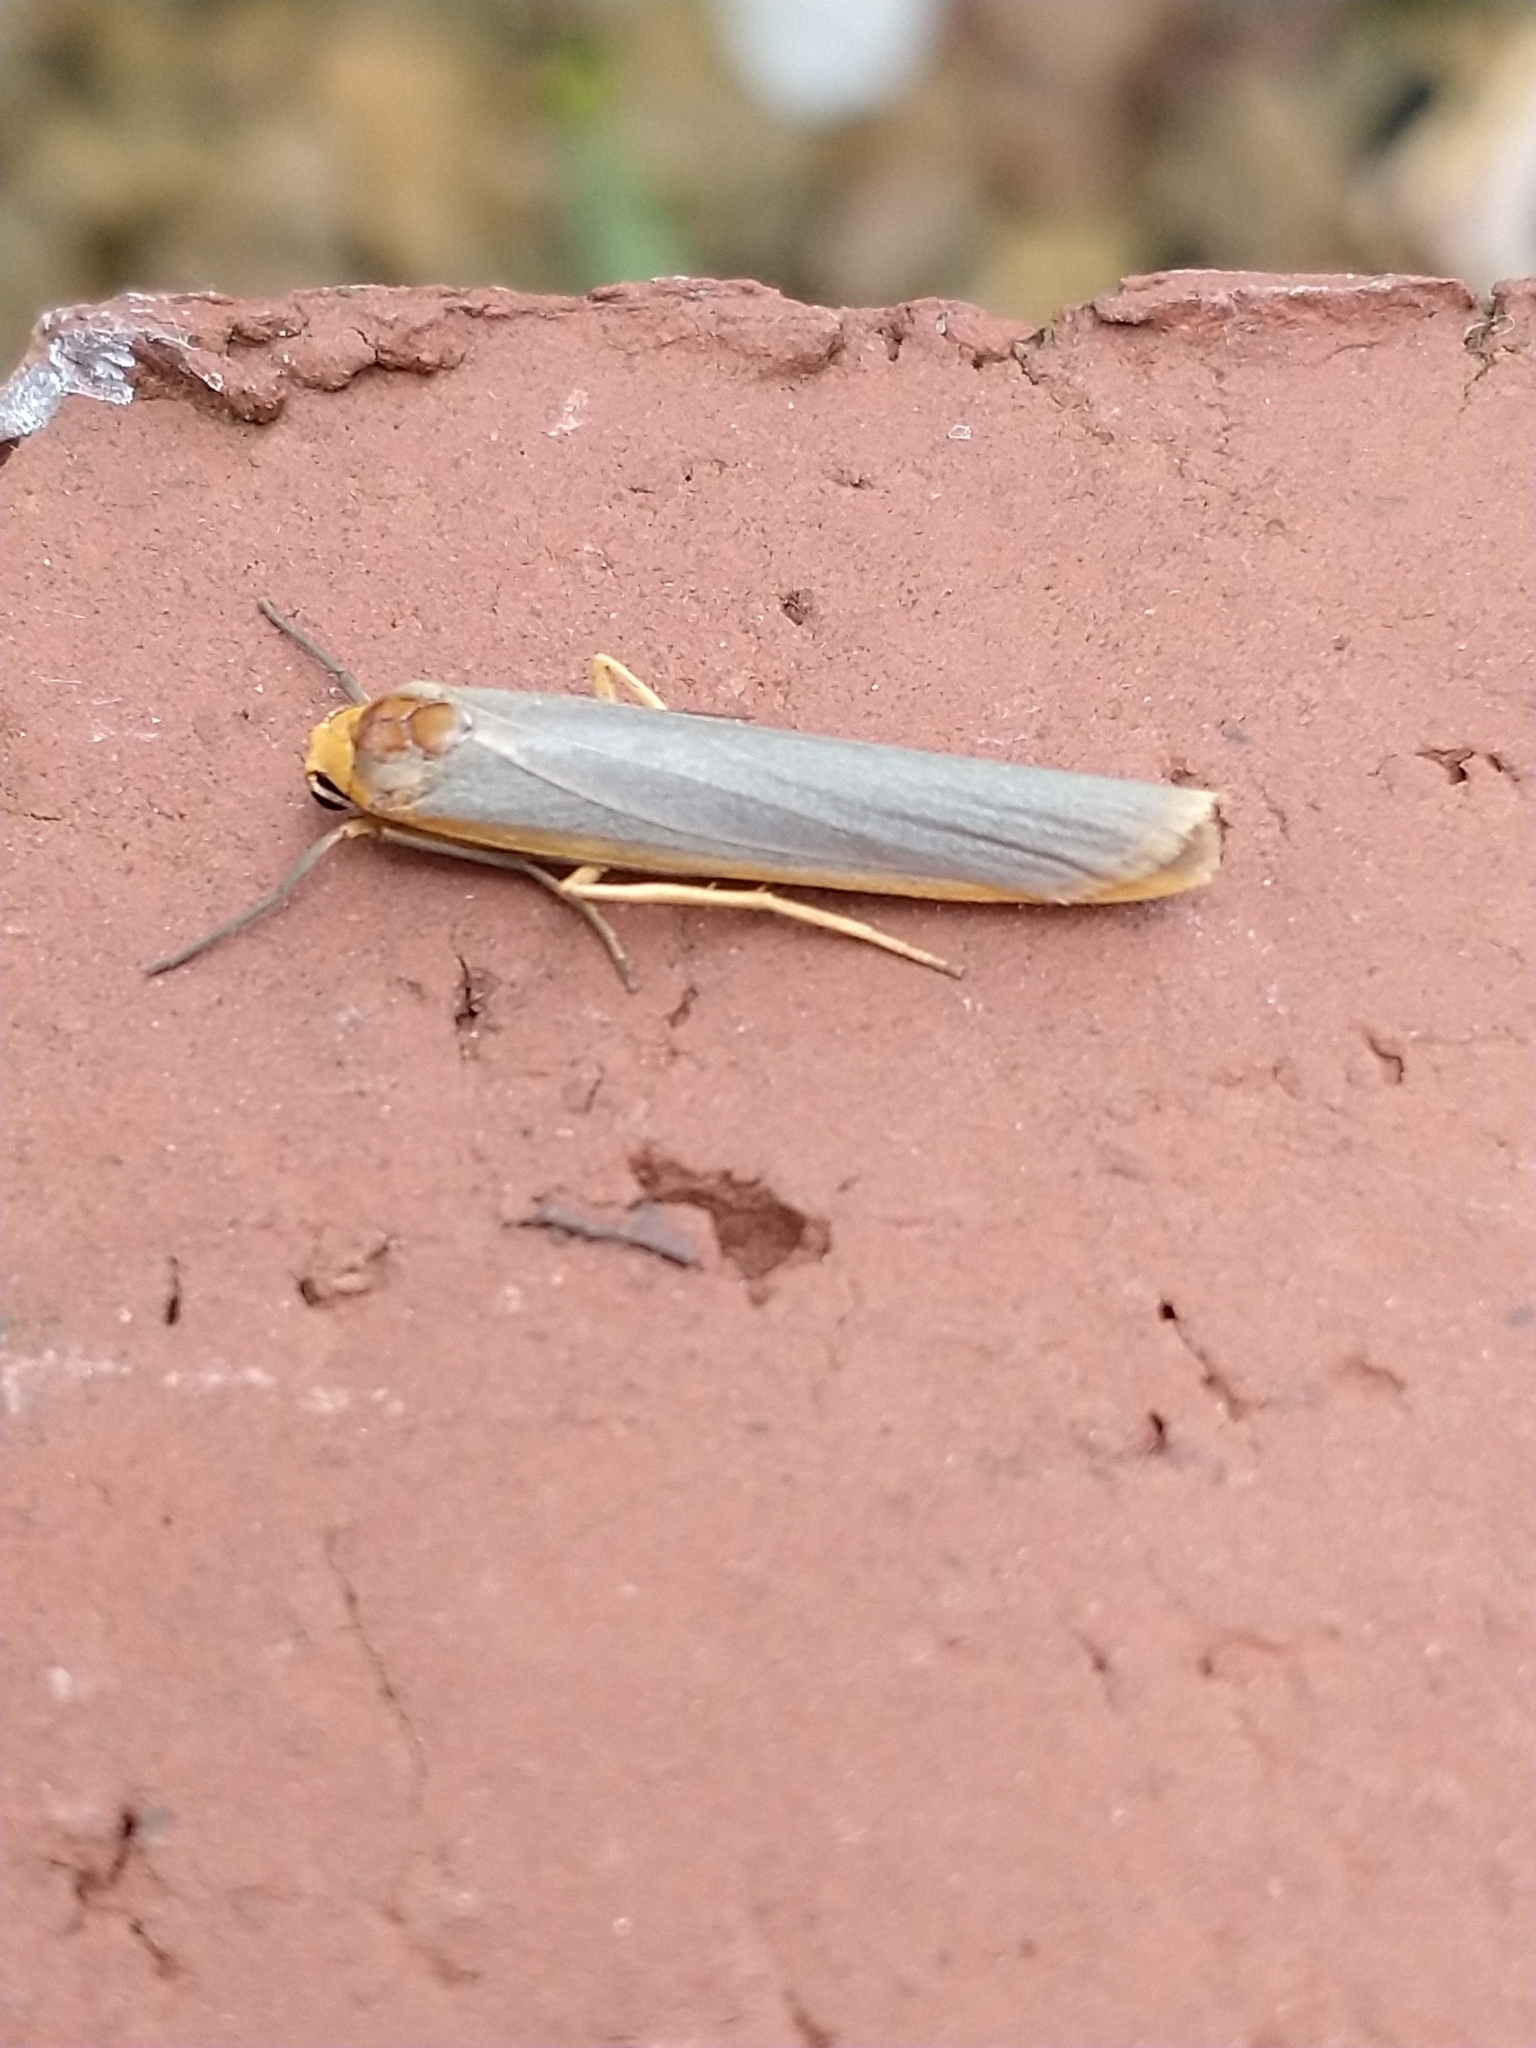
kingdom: Animalia
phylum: Arthropoda
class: Insecta
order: Lepidoptera
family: Erebidae
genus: Manulea
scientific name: Manulea complana
